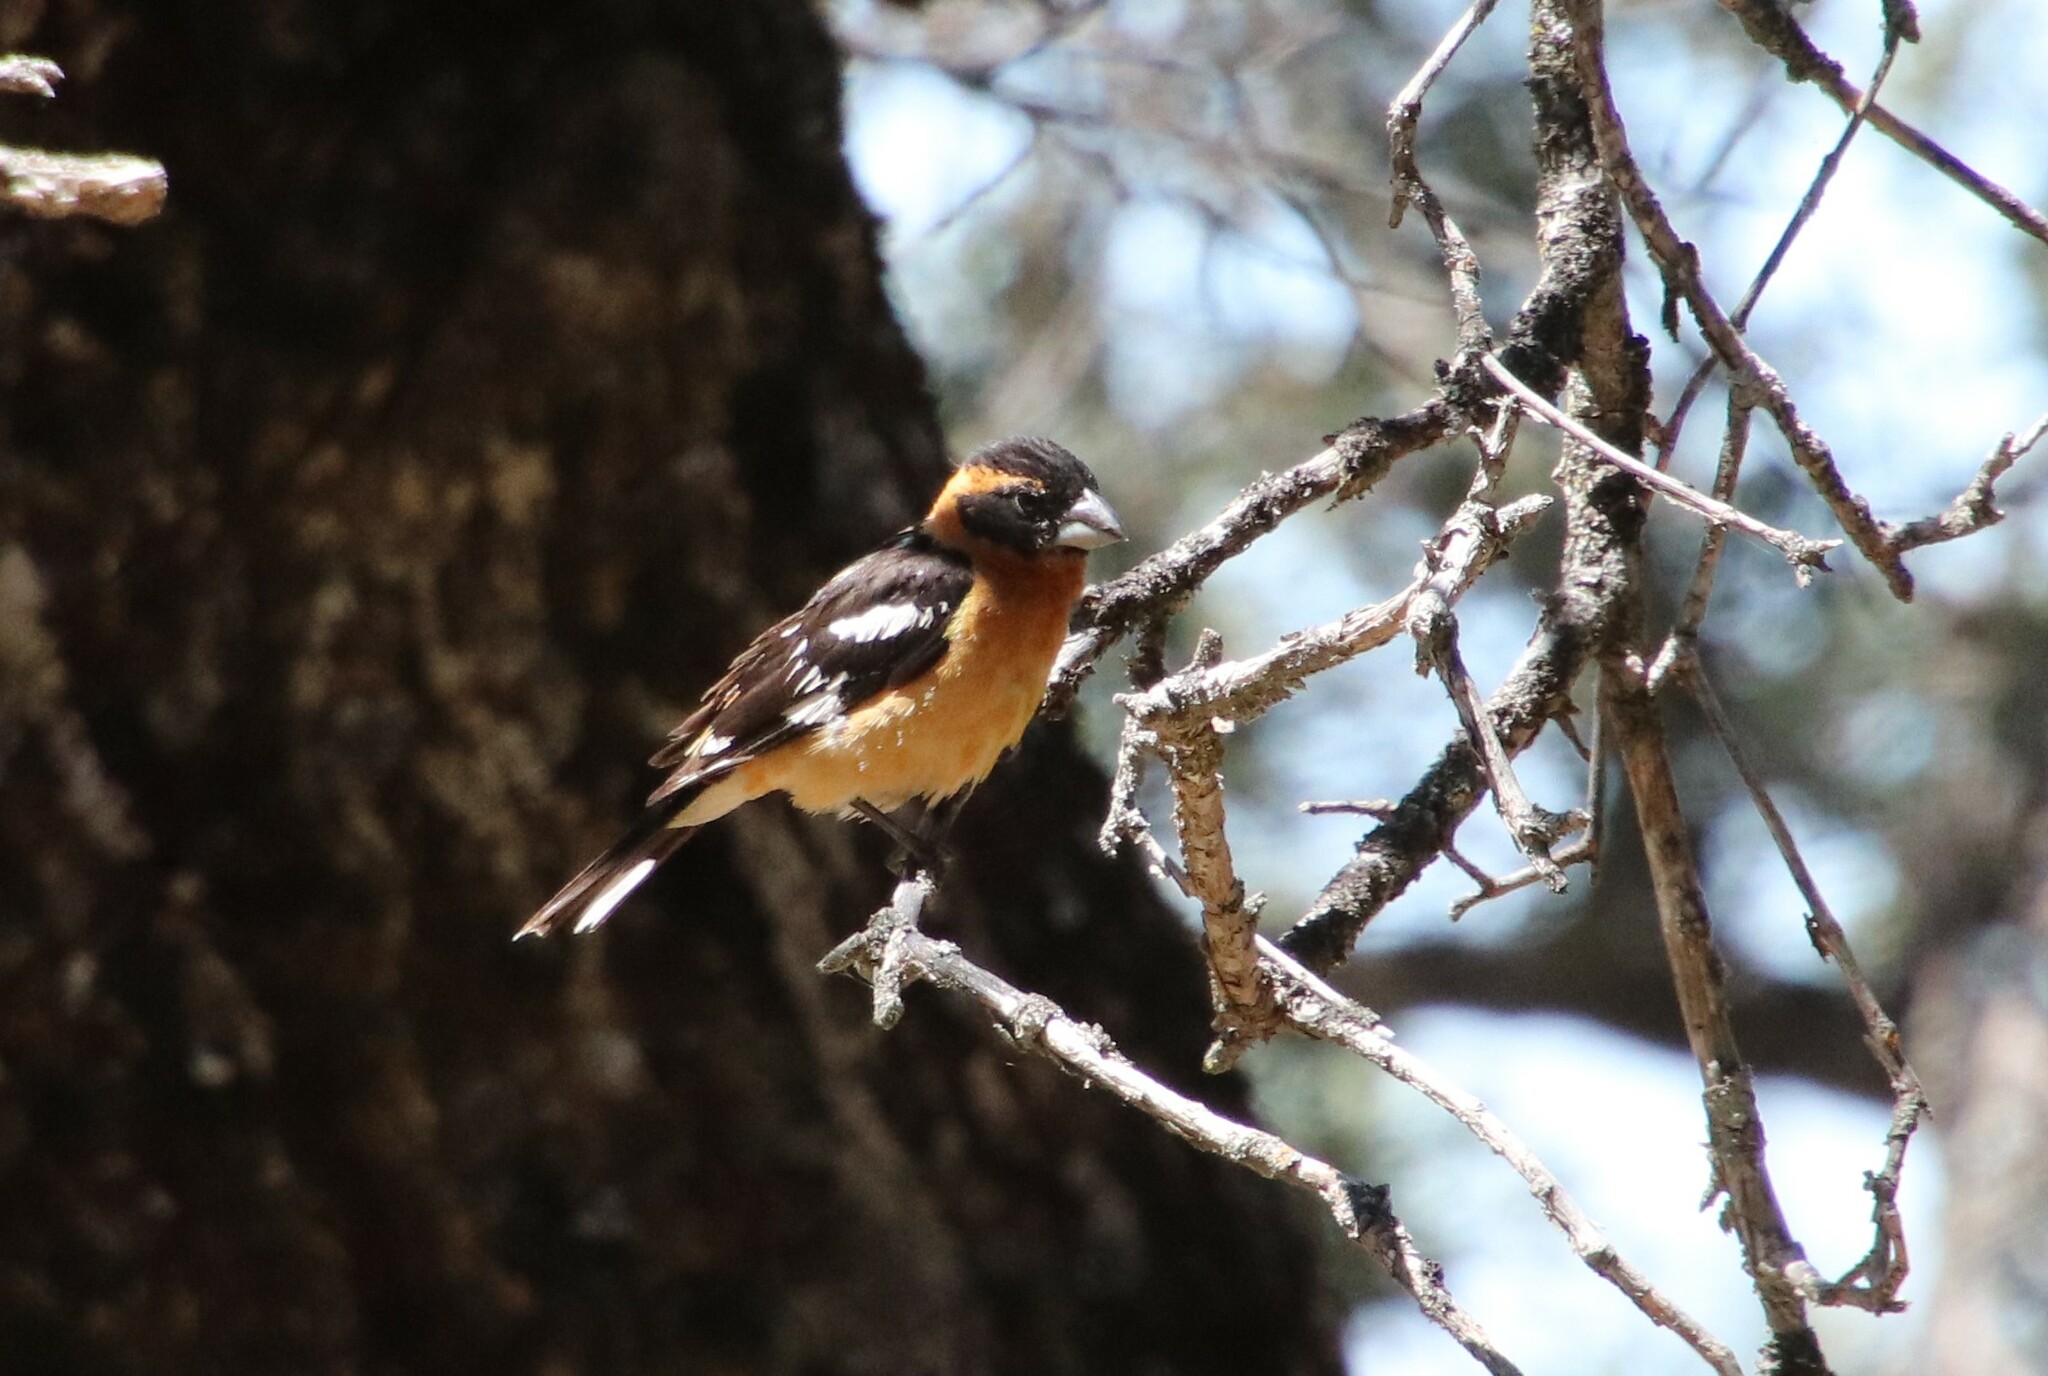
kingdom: Animalia
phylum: Chordata
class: Aves
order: Passeriformes
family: Cardinalidae
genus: Pheucticus
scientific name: Pheucticus melanocephalus
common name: Black-headed grosbeak
